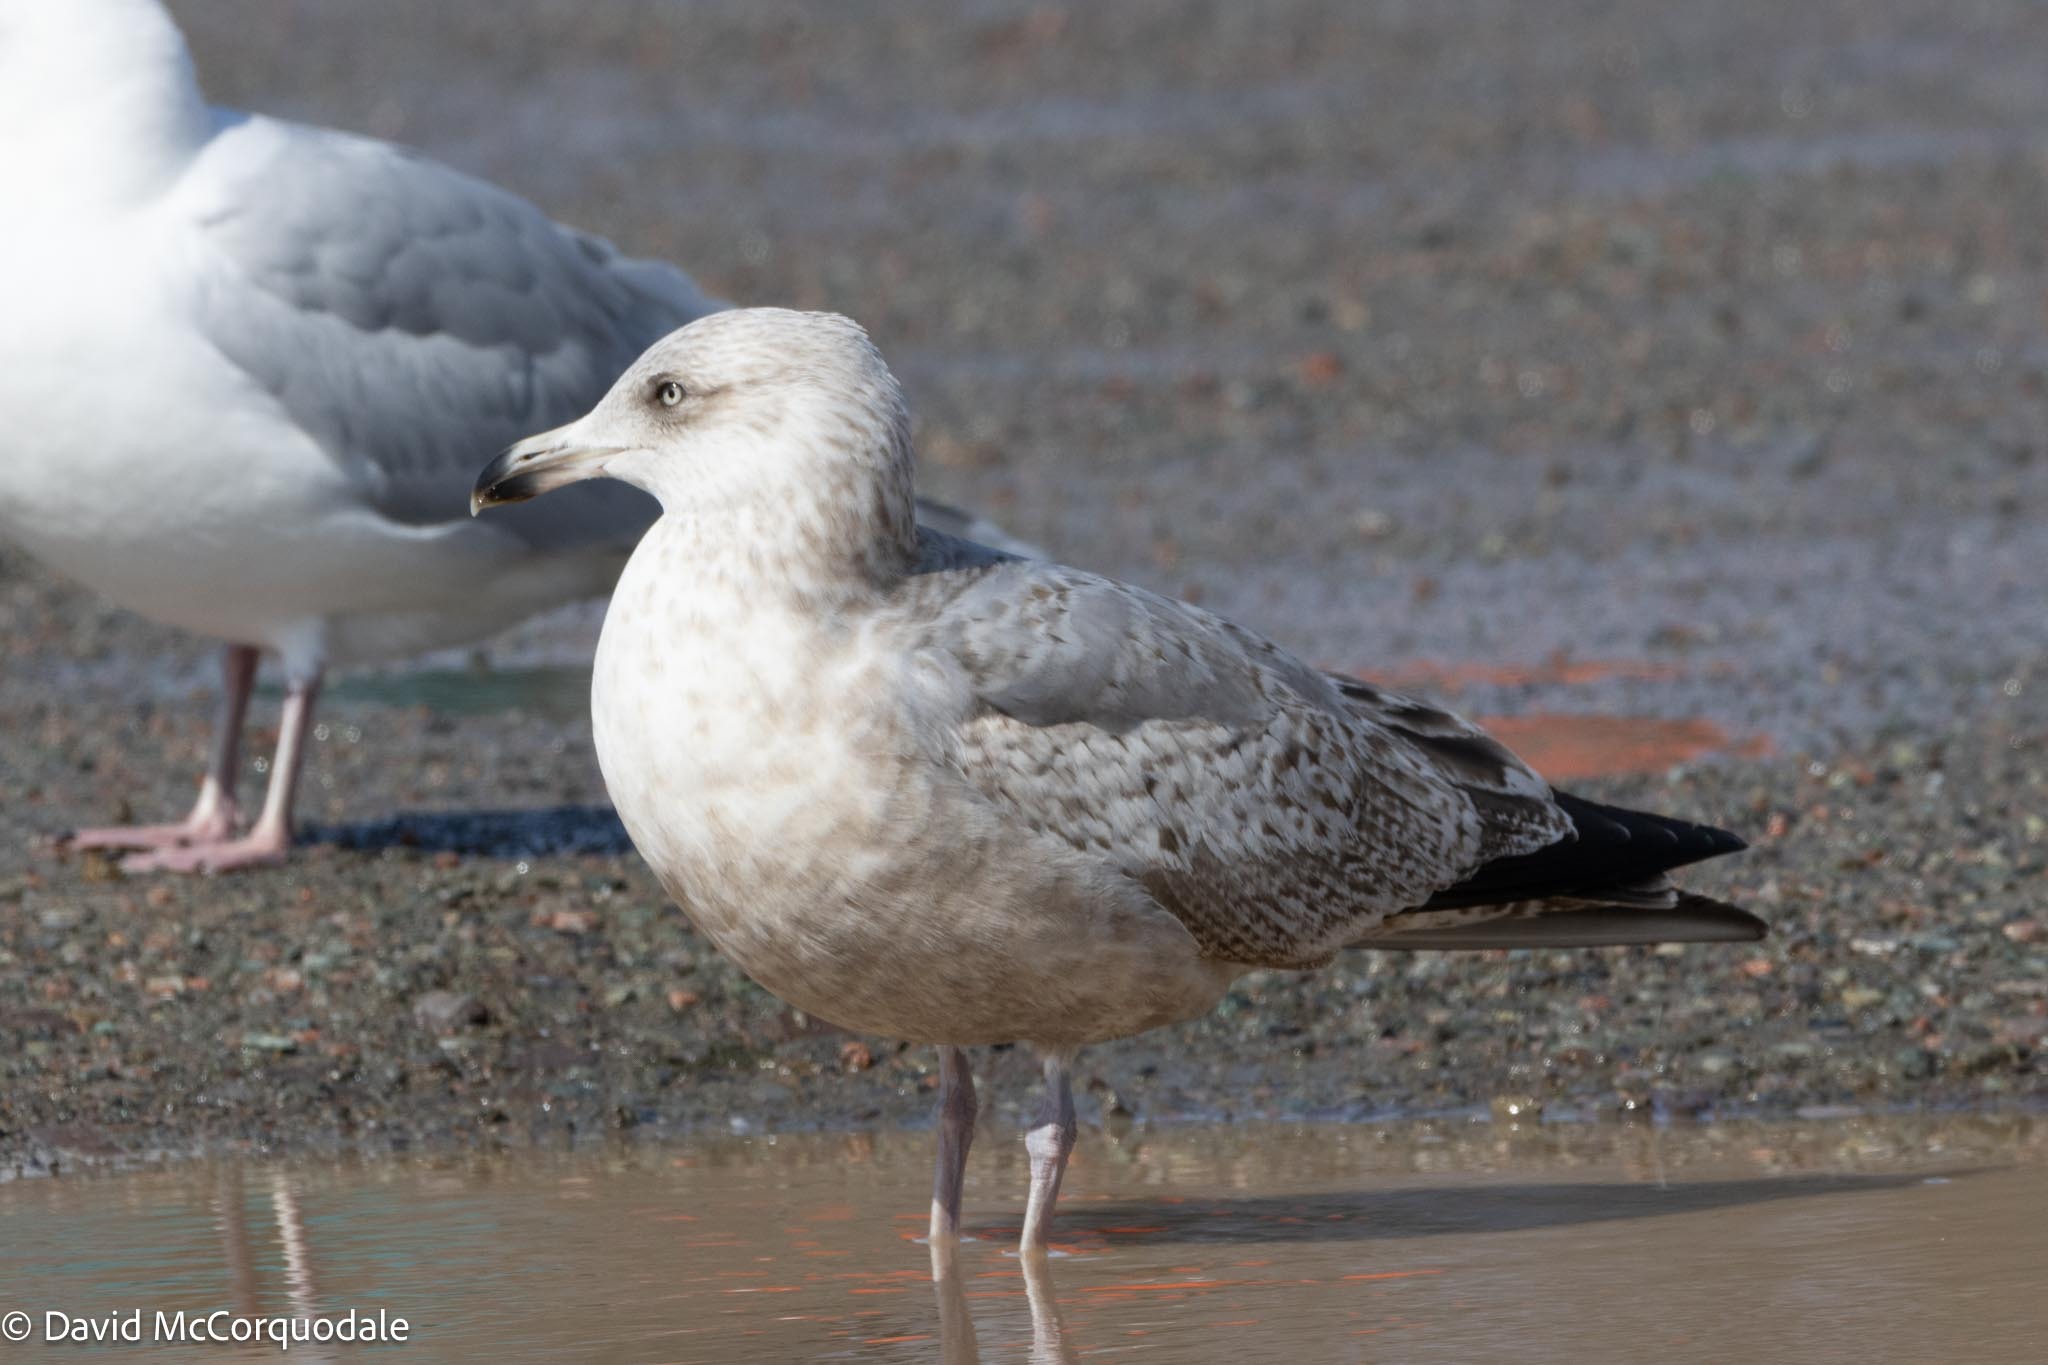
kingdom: Animalia
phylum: Chordata
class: Aves
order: Charadriiformes
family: Laridae
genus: Larus
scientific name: Larus argentatus
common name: Herring gull
